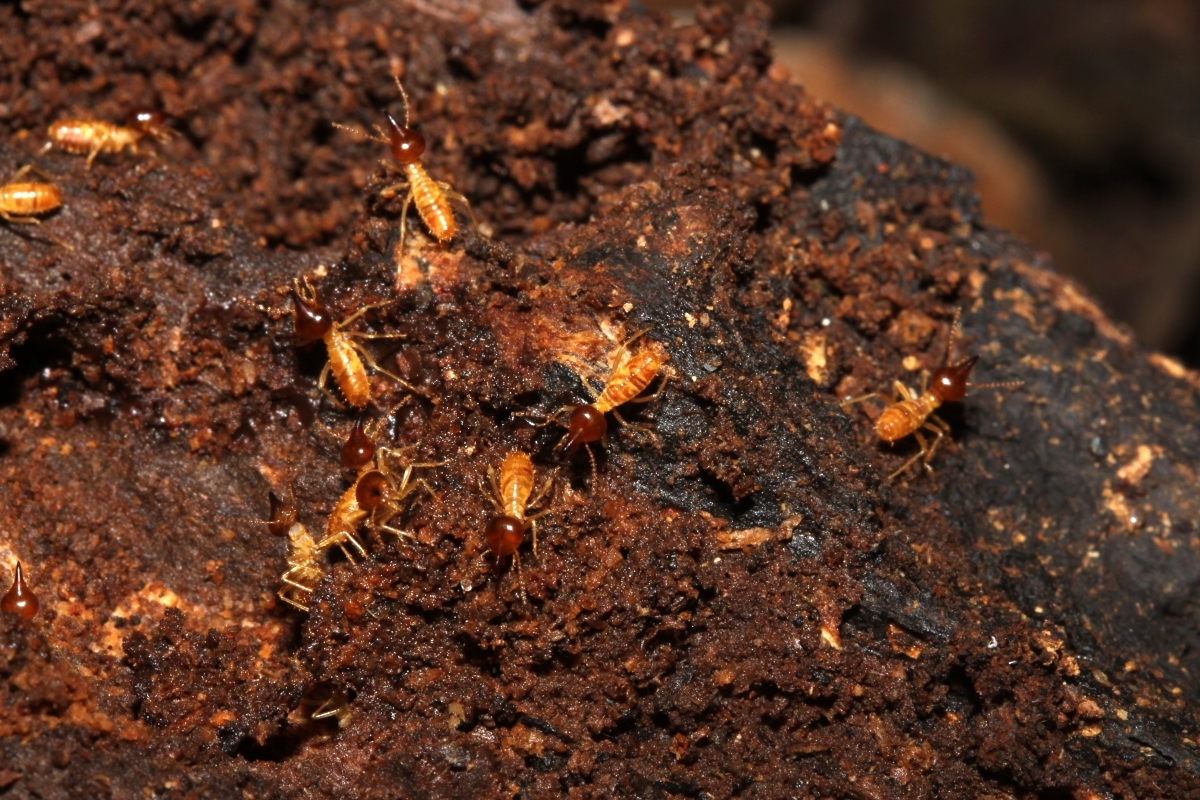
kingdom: Animalia
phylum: Arthropoda
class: Insecta
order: Blattodea
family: Termitidae
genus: Nasutitermes
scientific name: Nasutitermes
